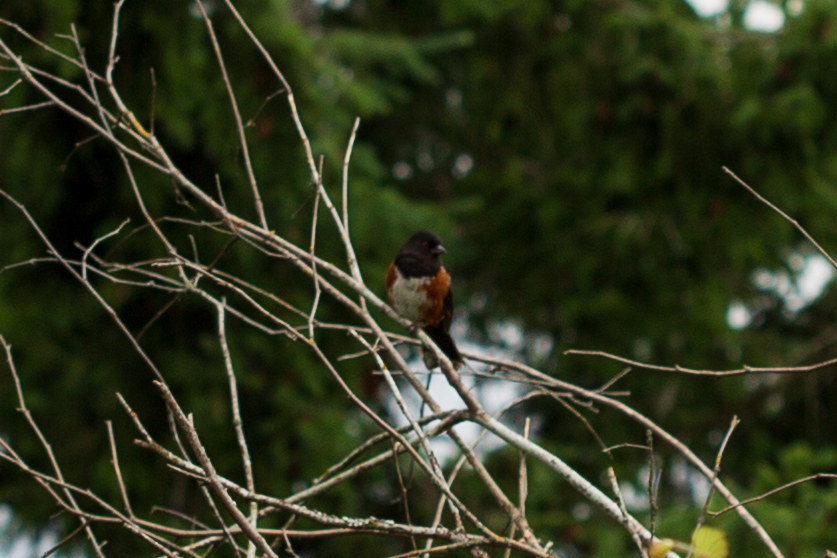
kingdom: Animalia
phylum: Chordata
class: Aves
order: Passeriformes
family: Passerellidae
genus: Pipilo
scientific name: Pipilo maculatus
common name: Spotted towhee
